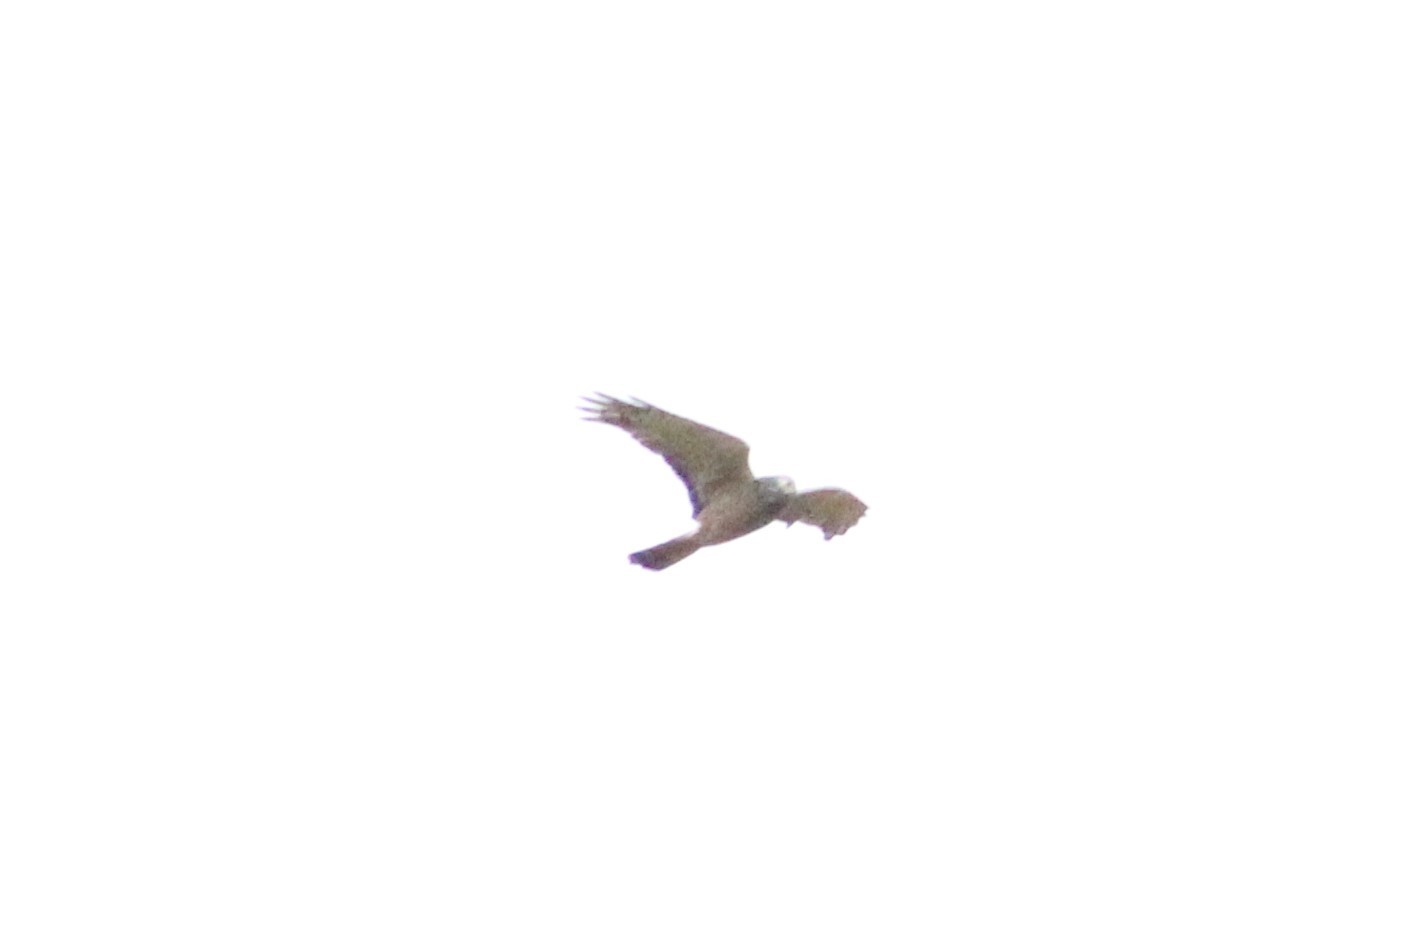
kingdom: Animalia
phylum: Chordata
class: Aves
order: Accipitriformes
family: Accipitridae
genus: Circus
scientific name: Circus cinereus
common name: Cinereous harrier
